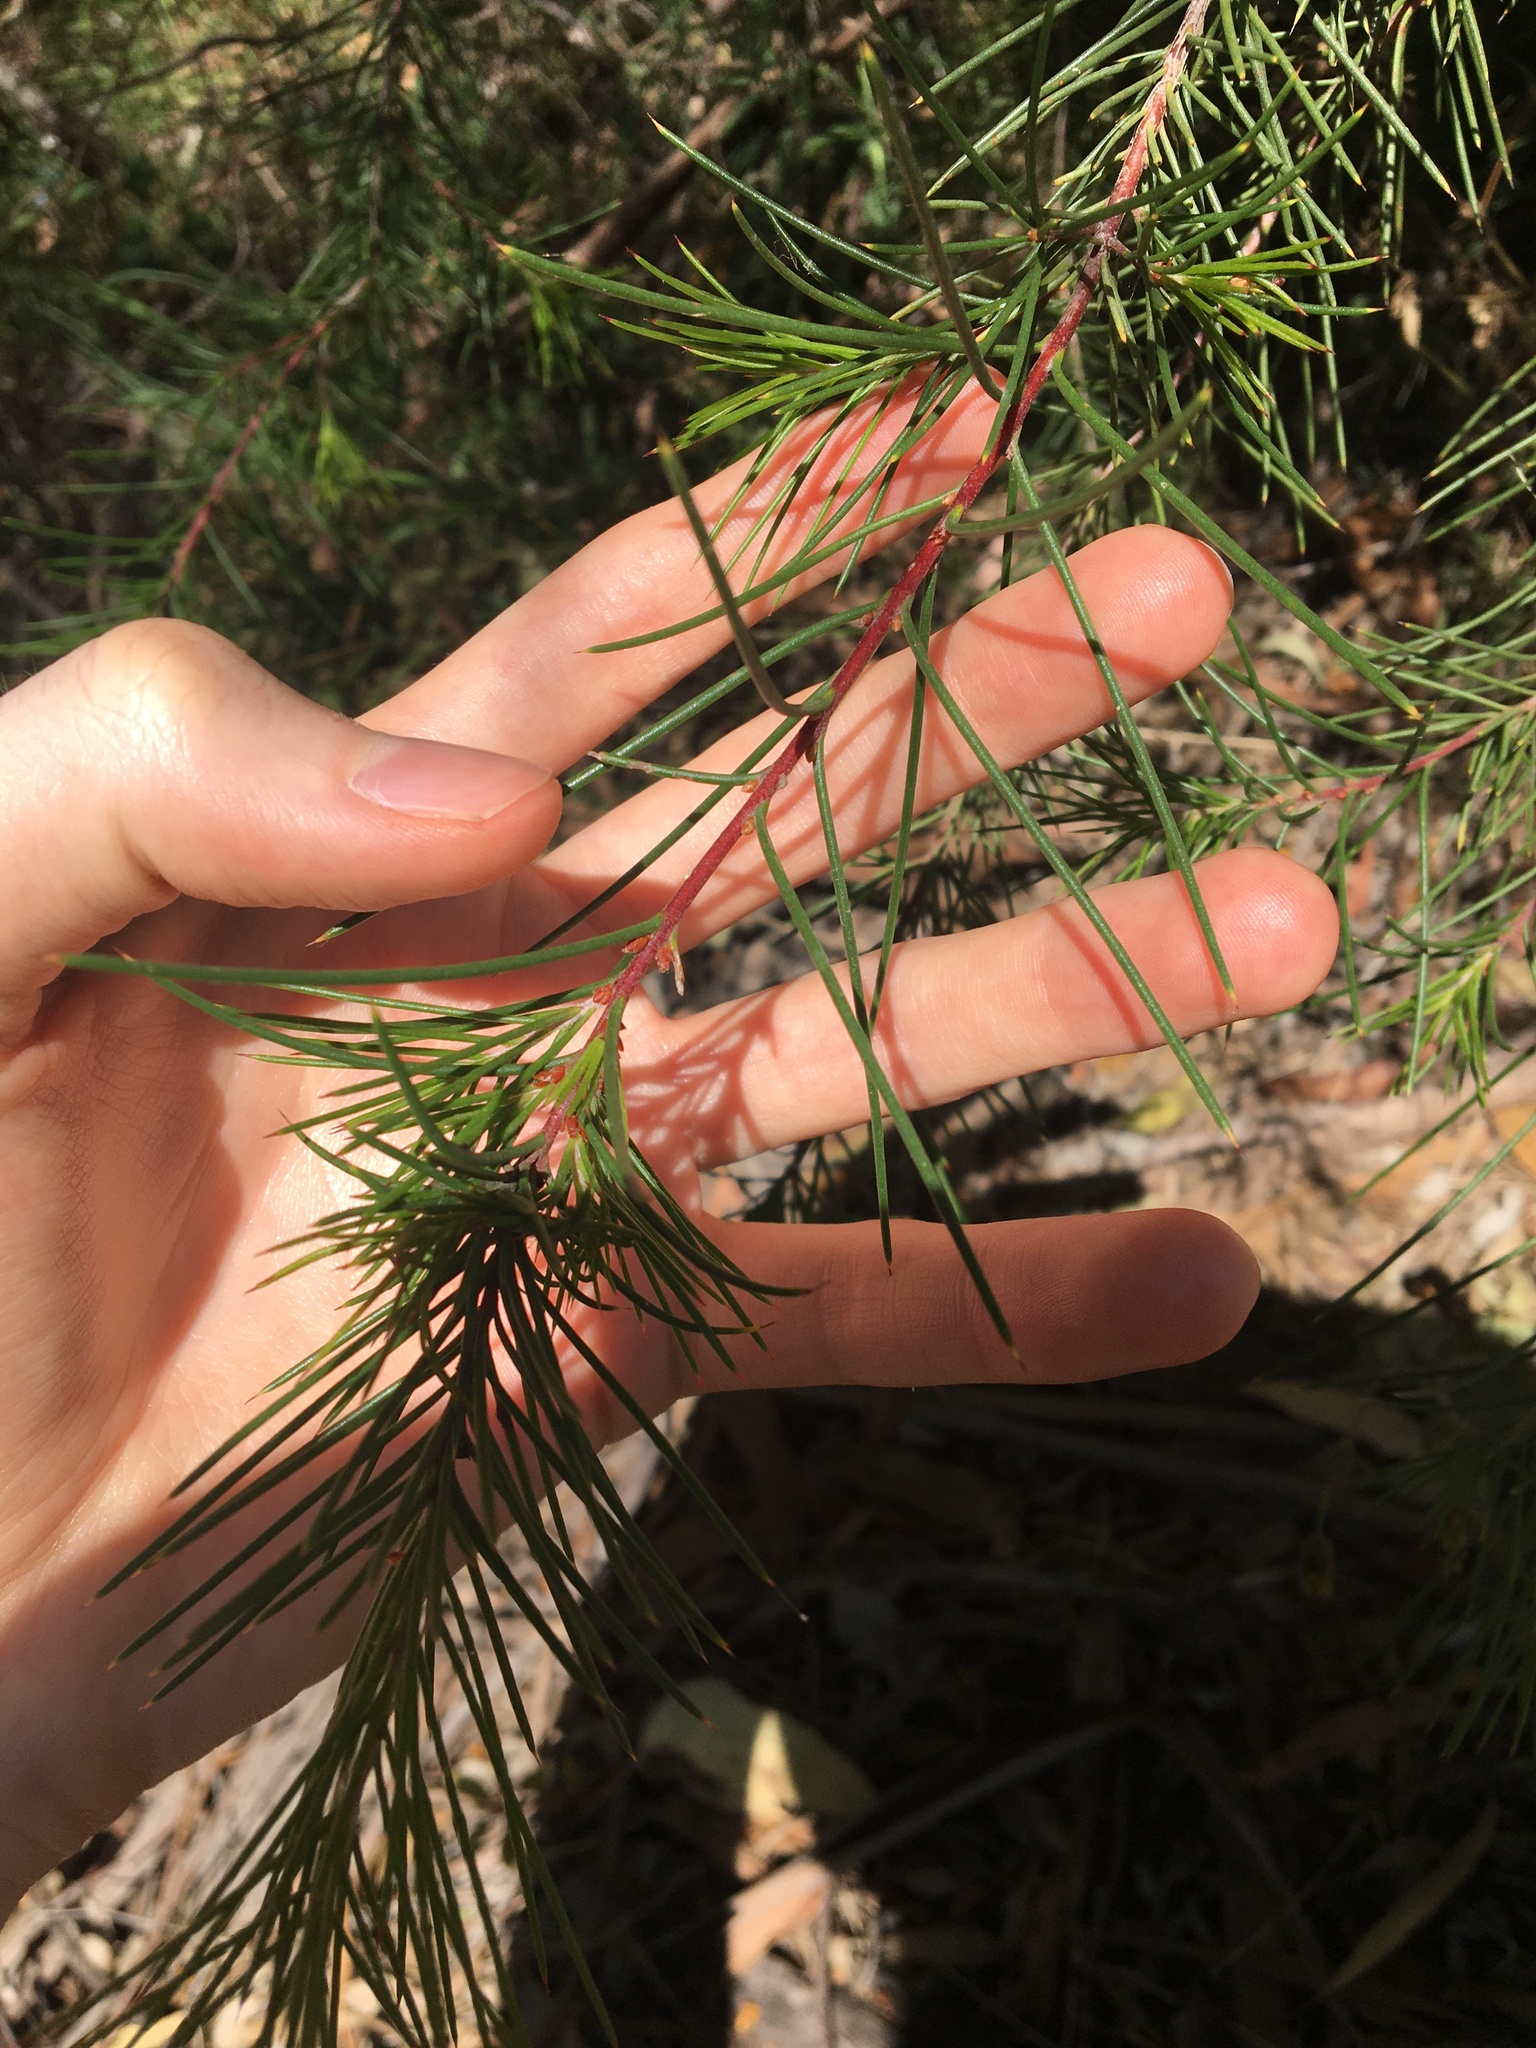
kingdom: Plantae
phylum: Tracheophyta
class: Magnoliopsida
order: Proteales
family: Proteaceae
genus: Hakea
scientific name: Hakea sericea
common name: Needle bush
